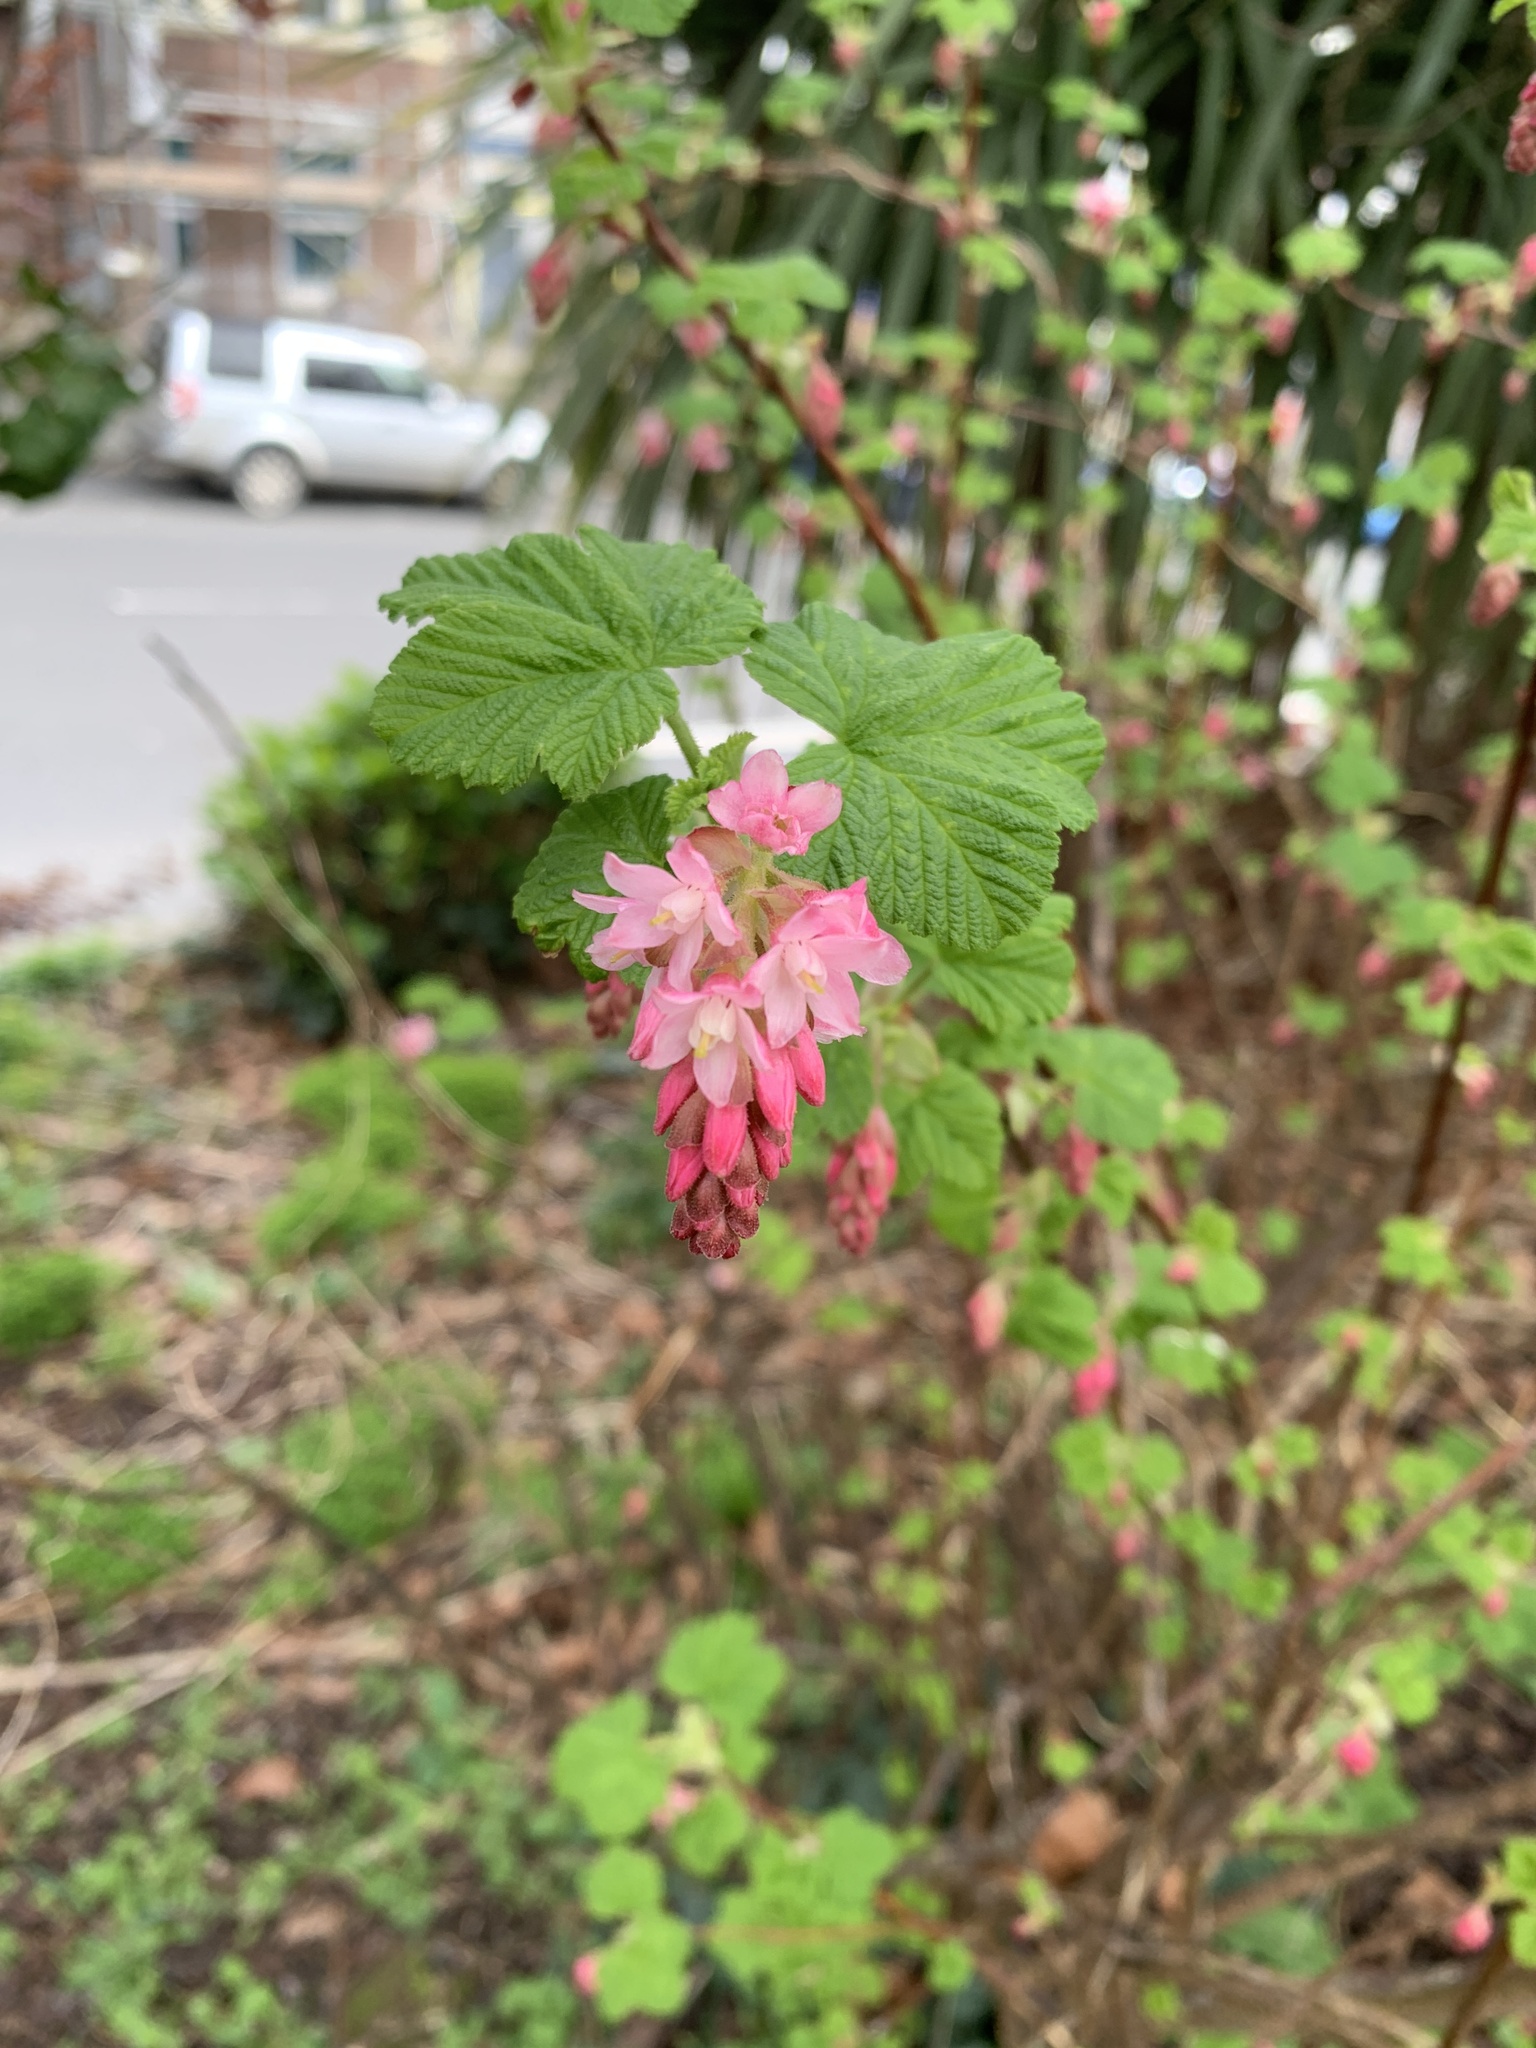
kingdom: Plantae
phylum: Tracheophyta
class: Magnoliopsida
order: Saxifragales
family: Grossulariaceae
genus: Ribes
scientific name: Ribes sanguineum
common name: Flowering currant
